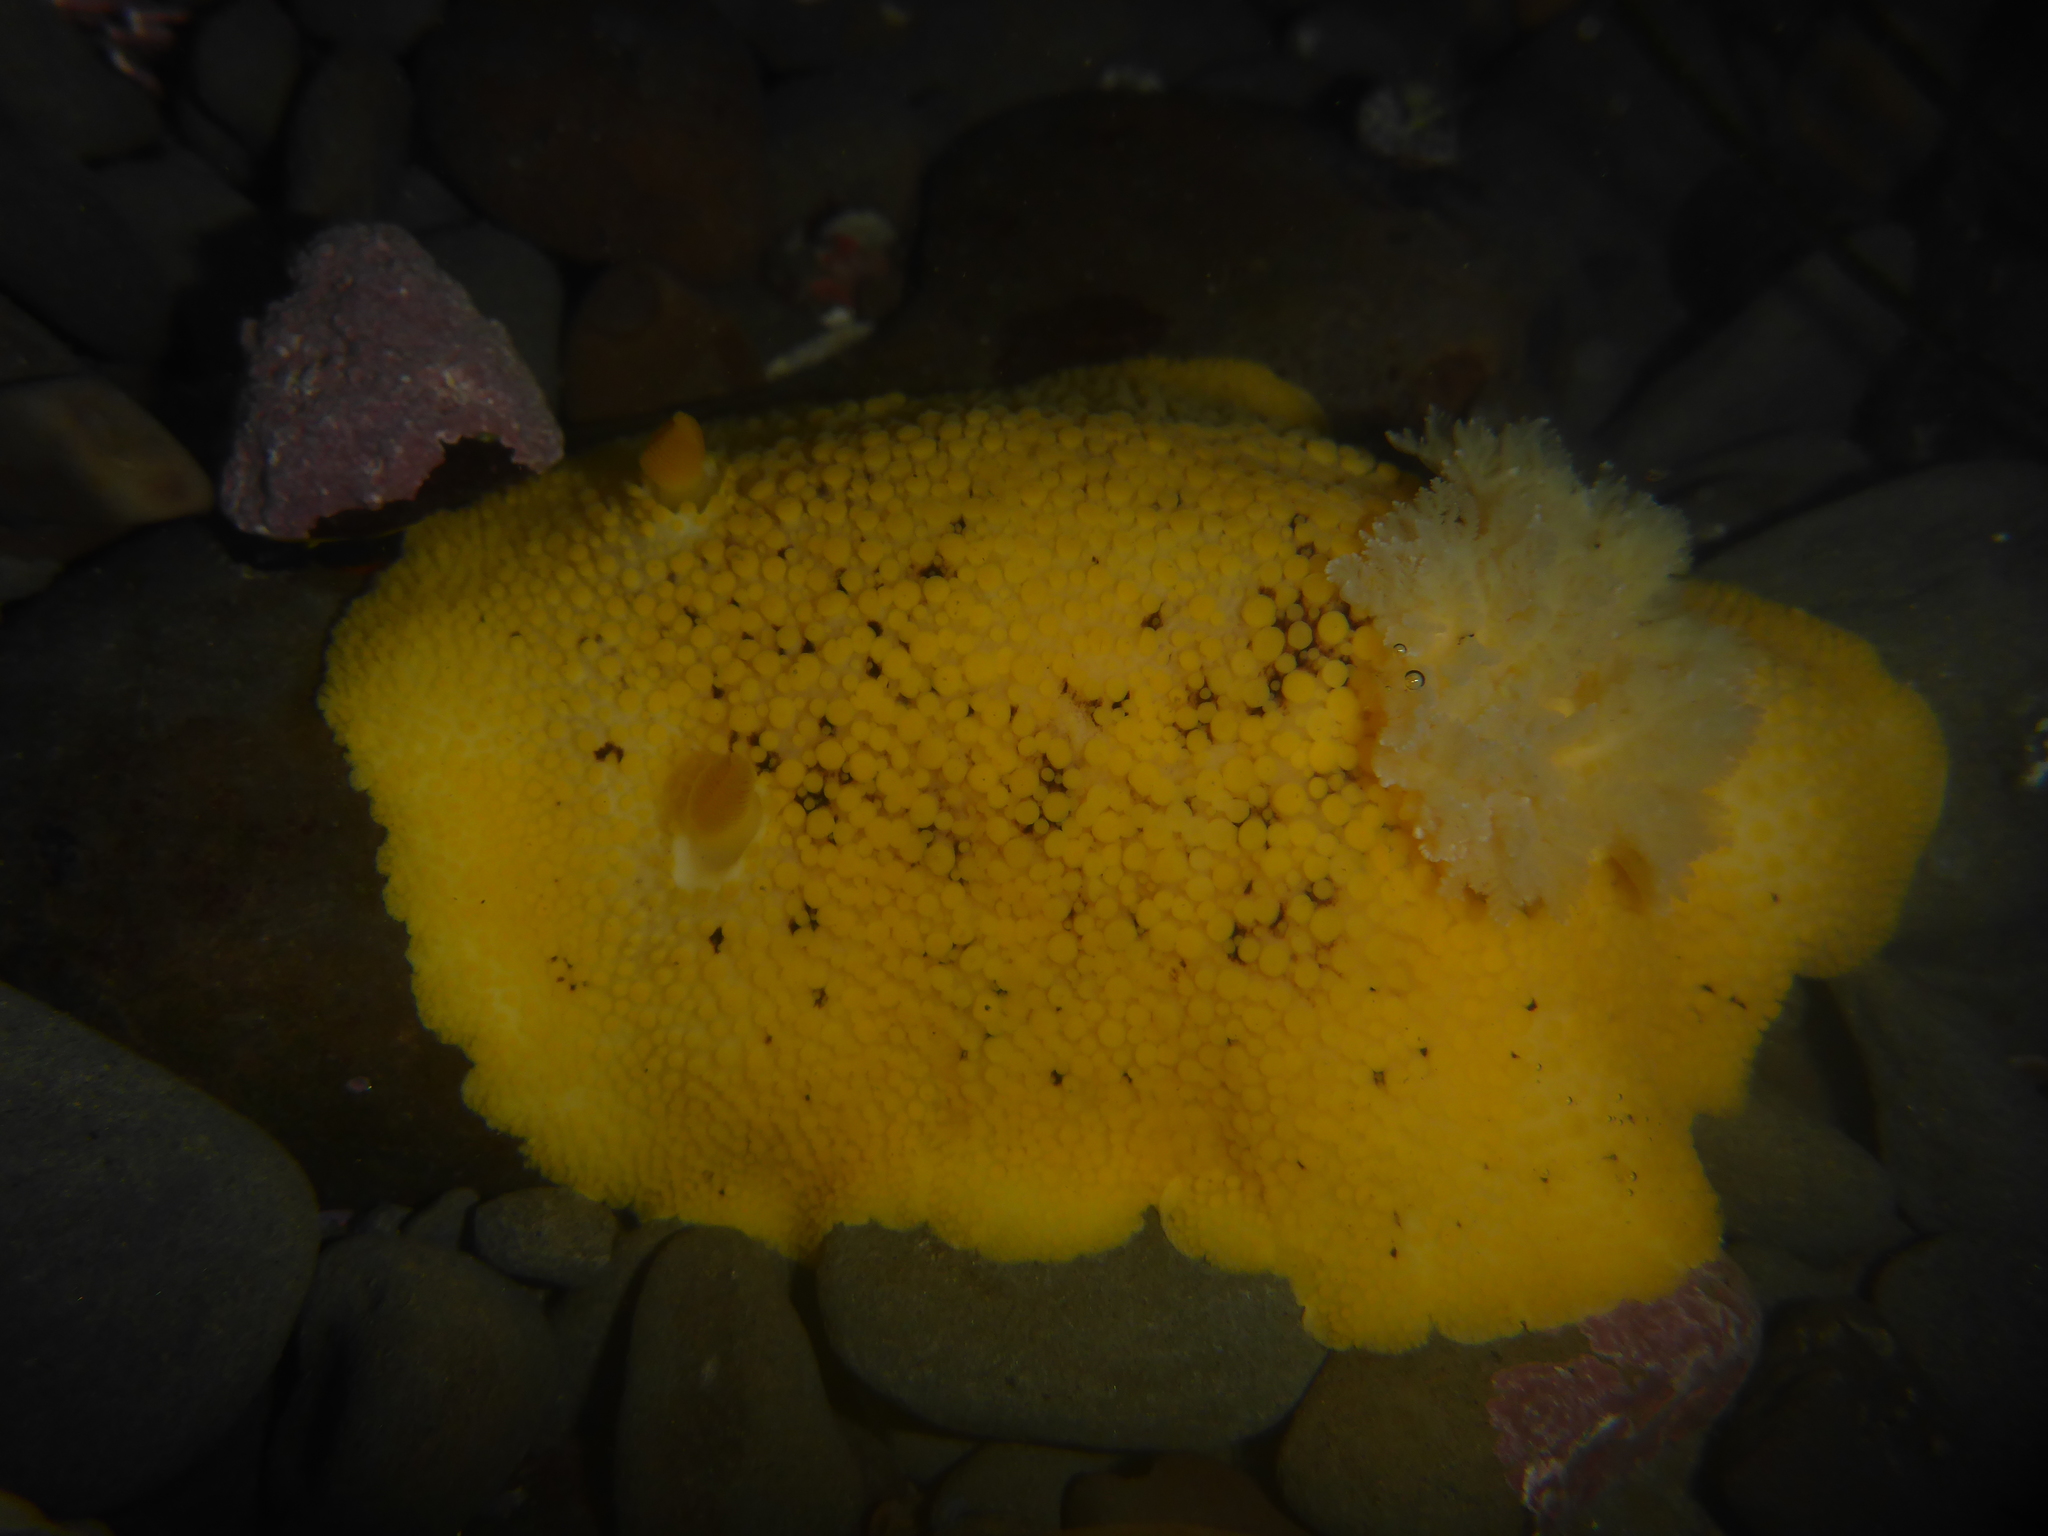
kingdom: Animalia
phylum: Mollusca
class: Gastropoda
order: Nudibranchia
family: Discodorididae
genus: Peltodoris
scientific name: Peltodoris nobilis
